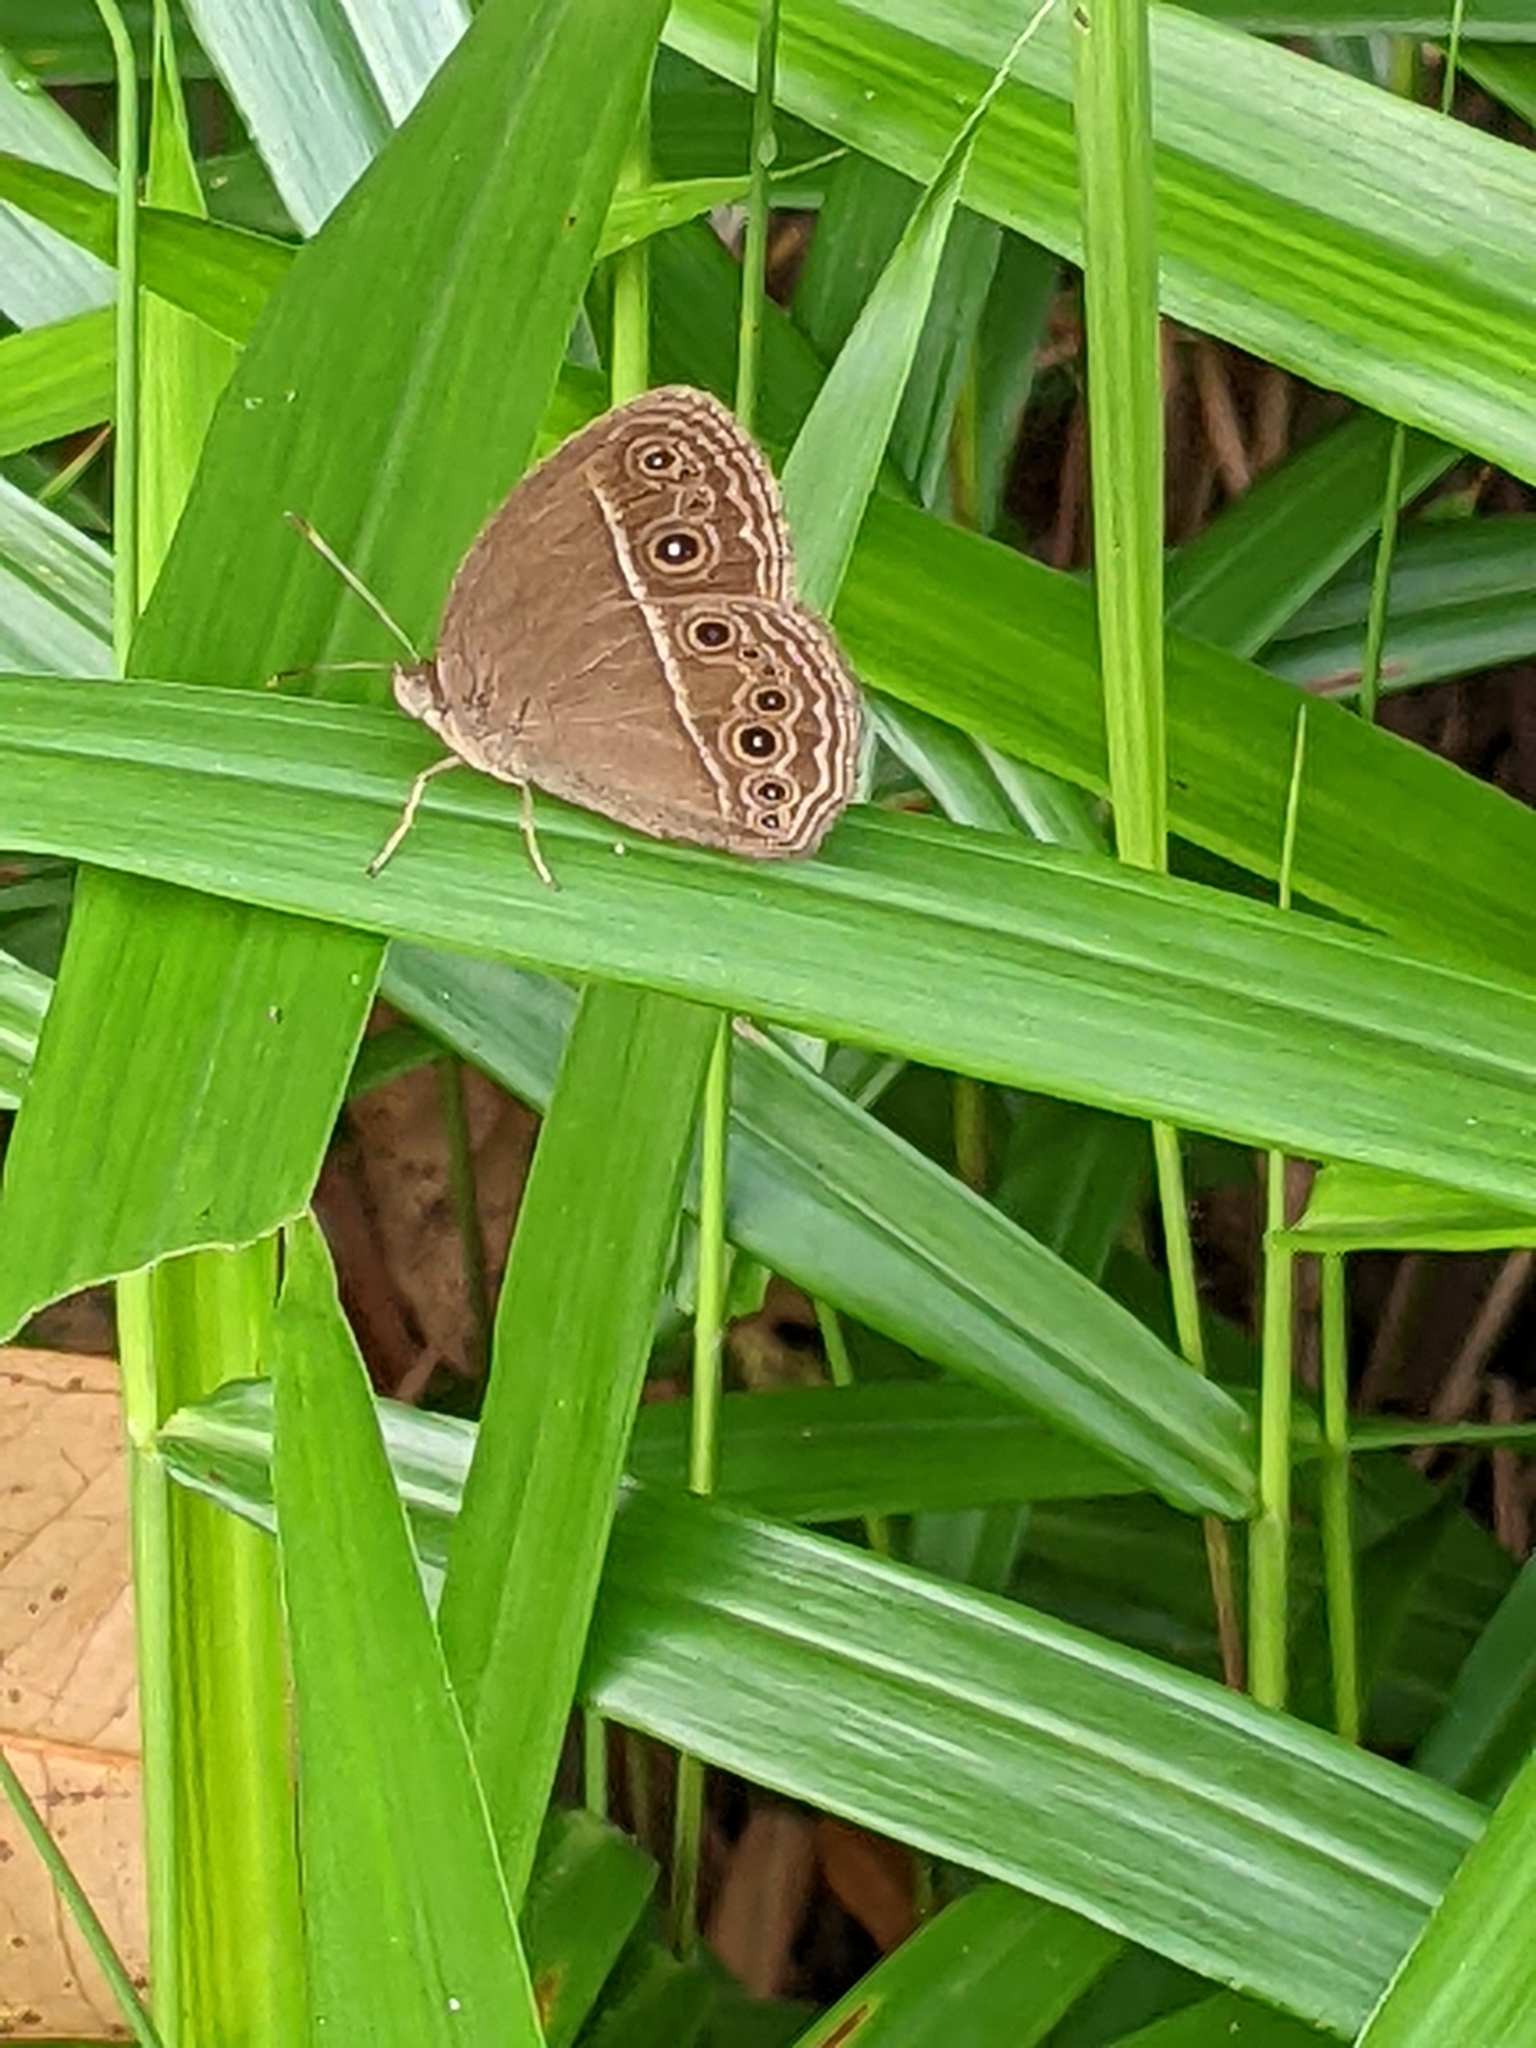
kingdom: Animalia
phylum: Arthropoda
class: Insecta
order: Lepidoptera
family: Nymphalidae
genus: Mycalesis
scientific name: Mycalesis perseus
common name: Dingy bushbrown
